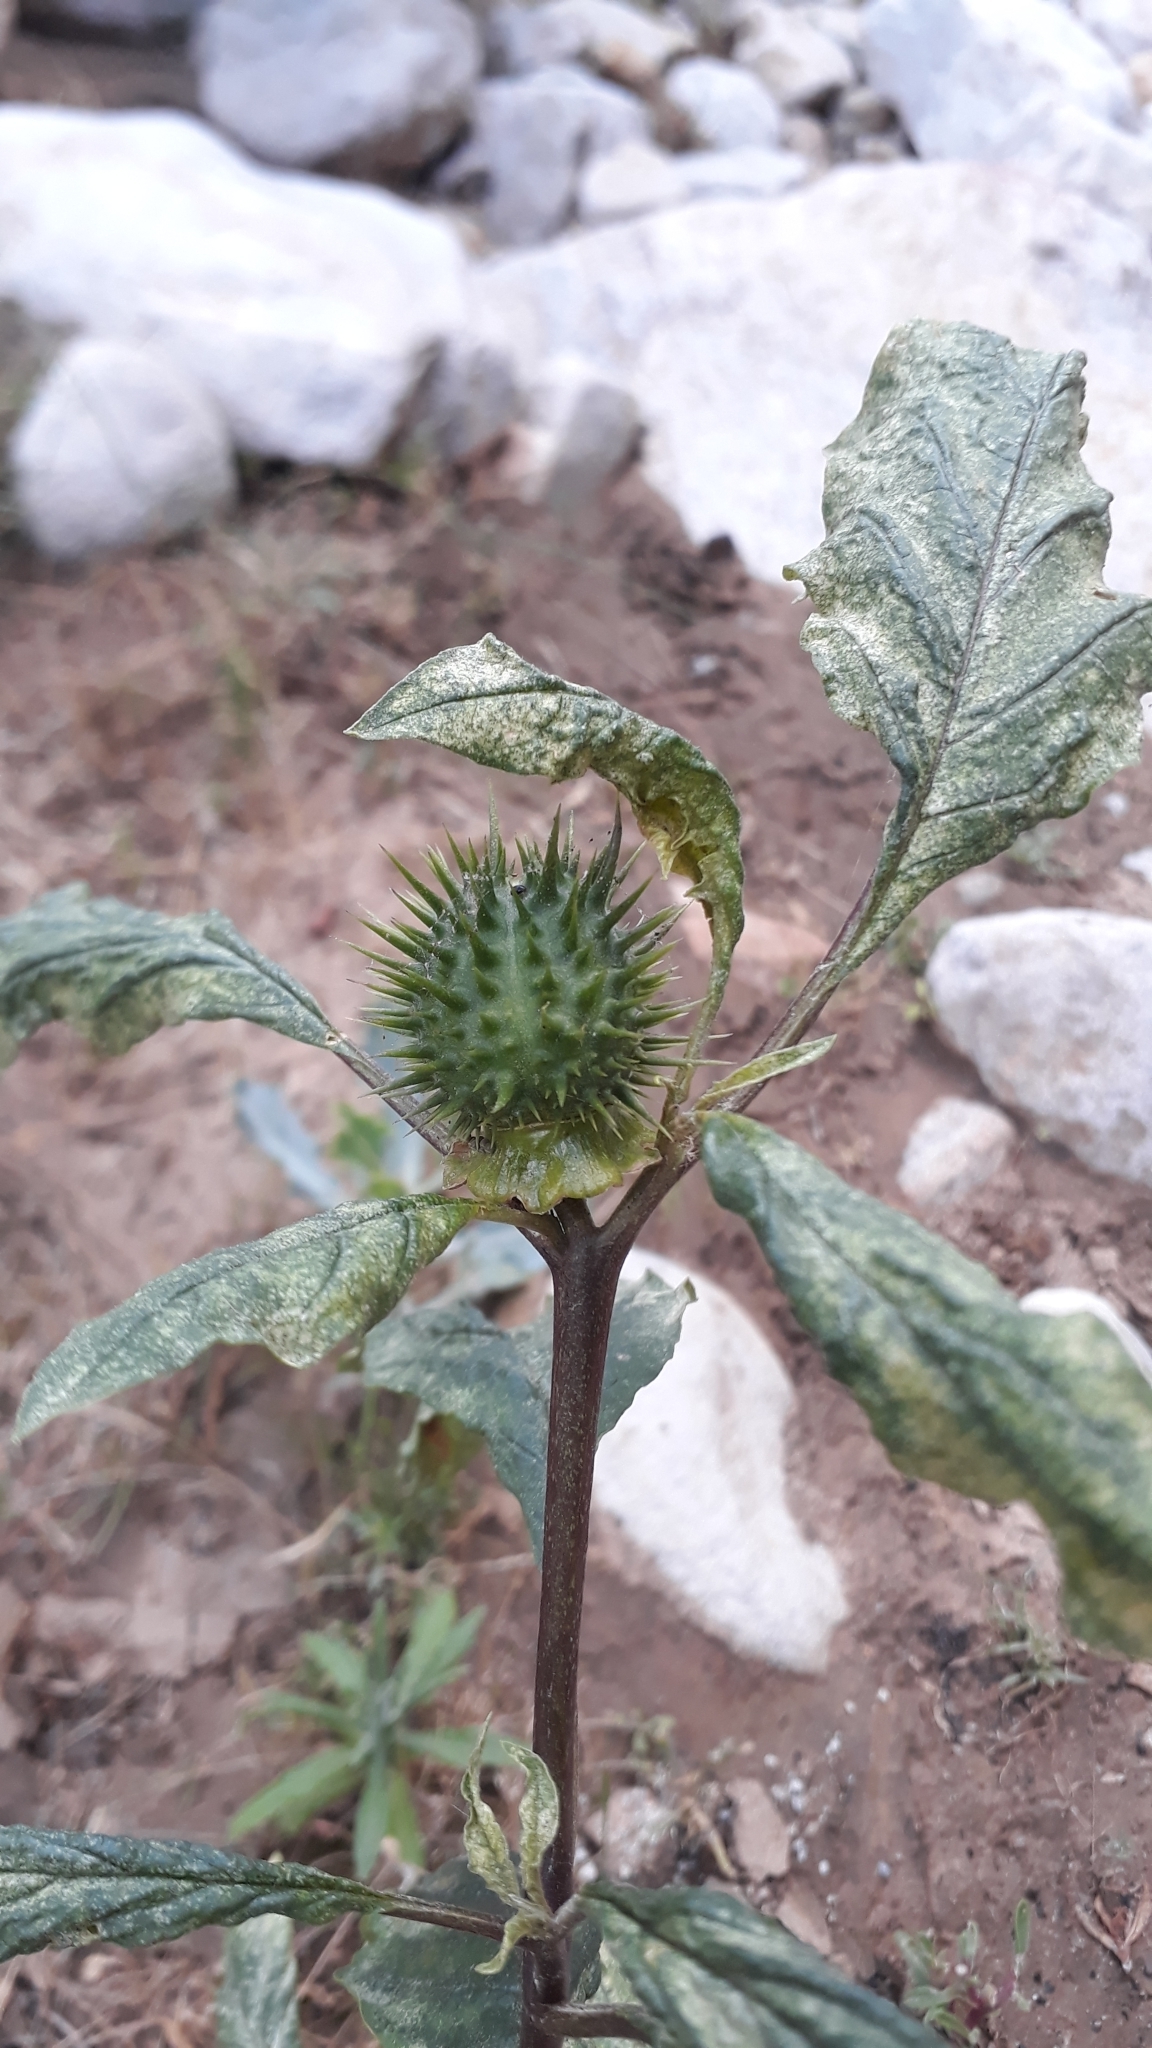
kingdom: Plantae
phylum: Tracheophyta
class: Magnoliopsida
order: Solanales
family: Solanaceae
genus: Datura
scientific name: Datura stramonium
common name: Thorn-apple
